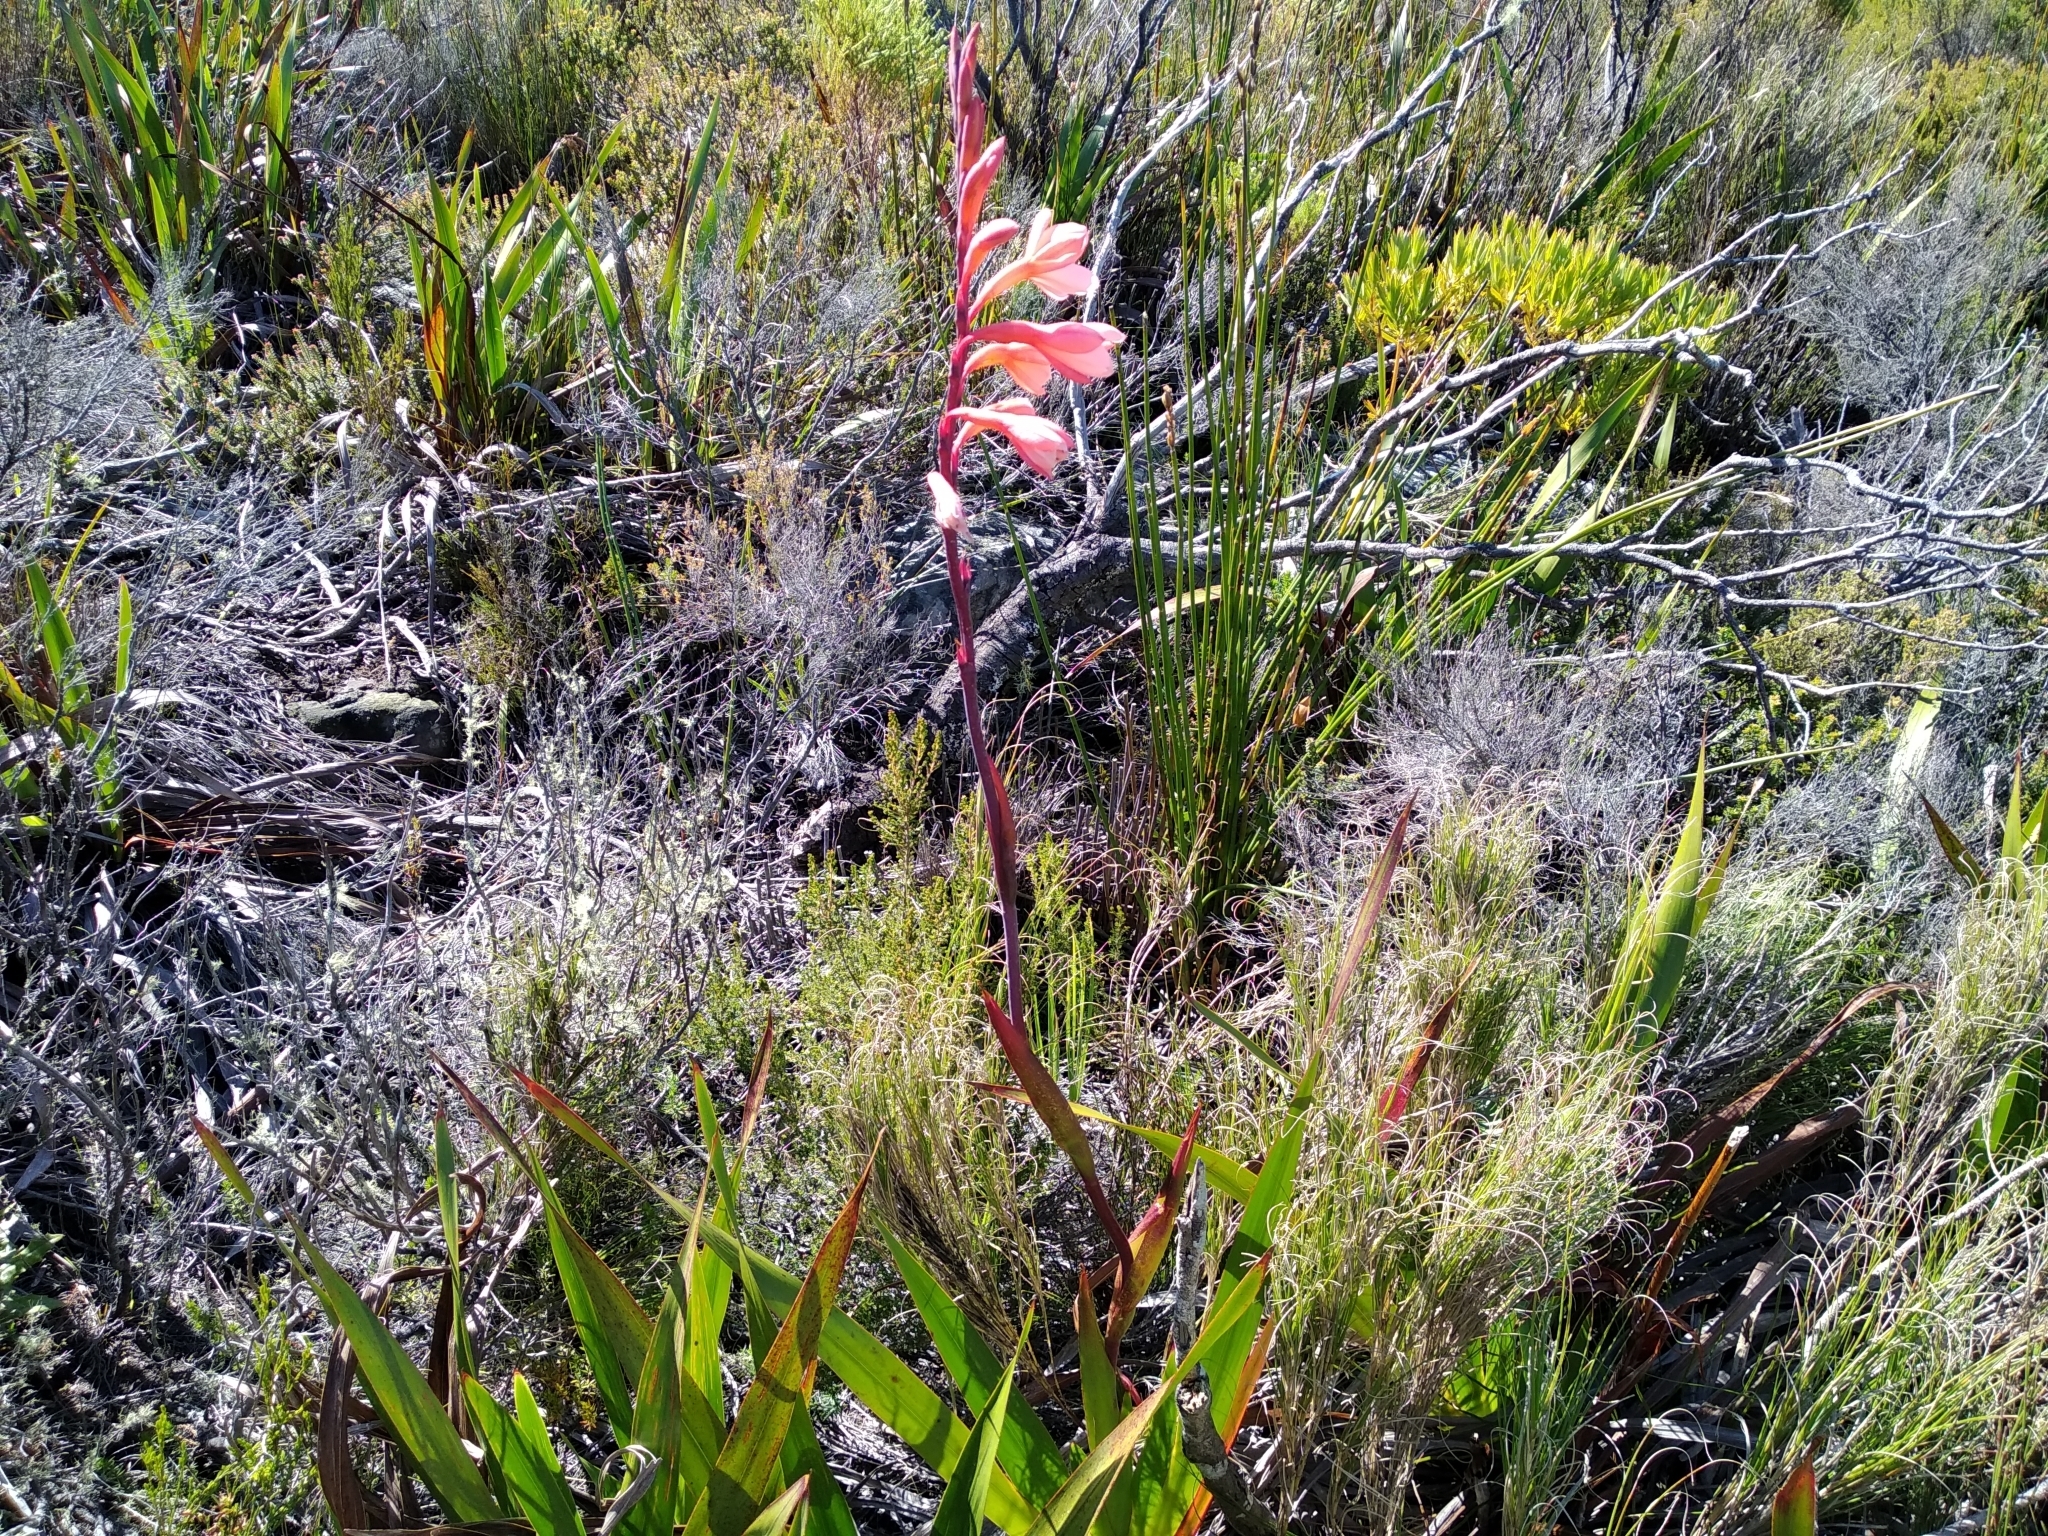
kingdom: Plantae
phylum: Tracheophyta
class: Liliopsida
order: Asparagales
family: Iridaceae
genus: Watsonia
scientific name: Watsonia tabularis
